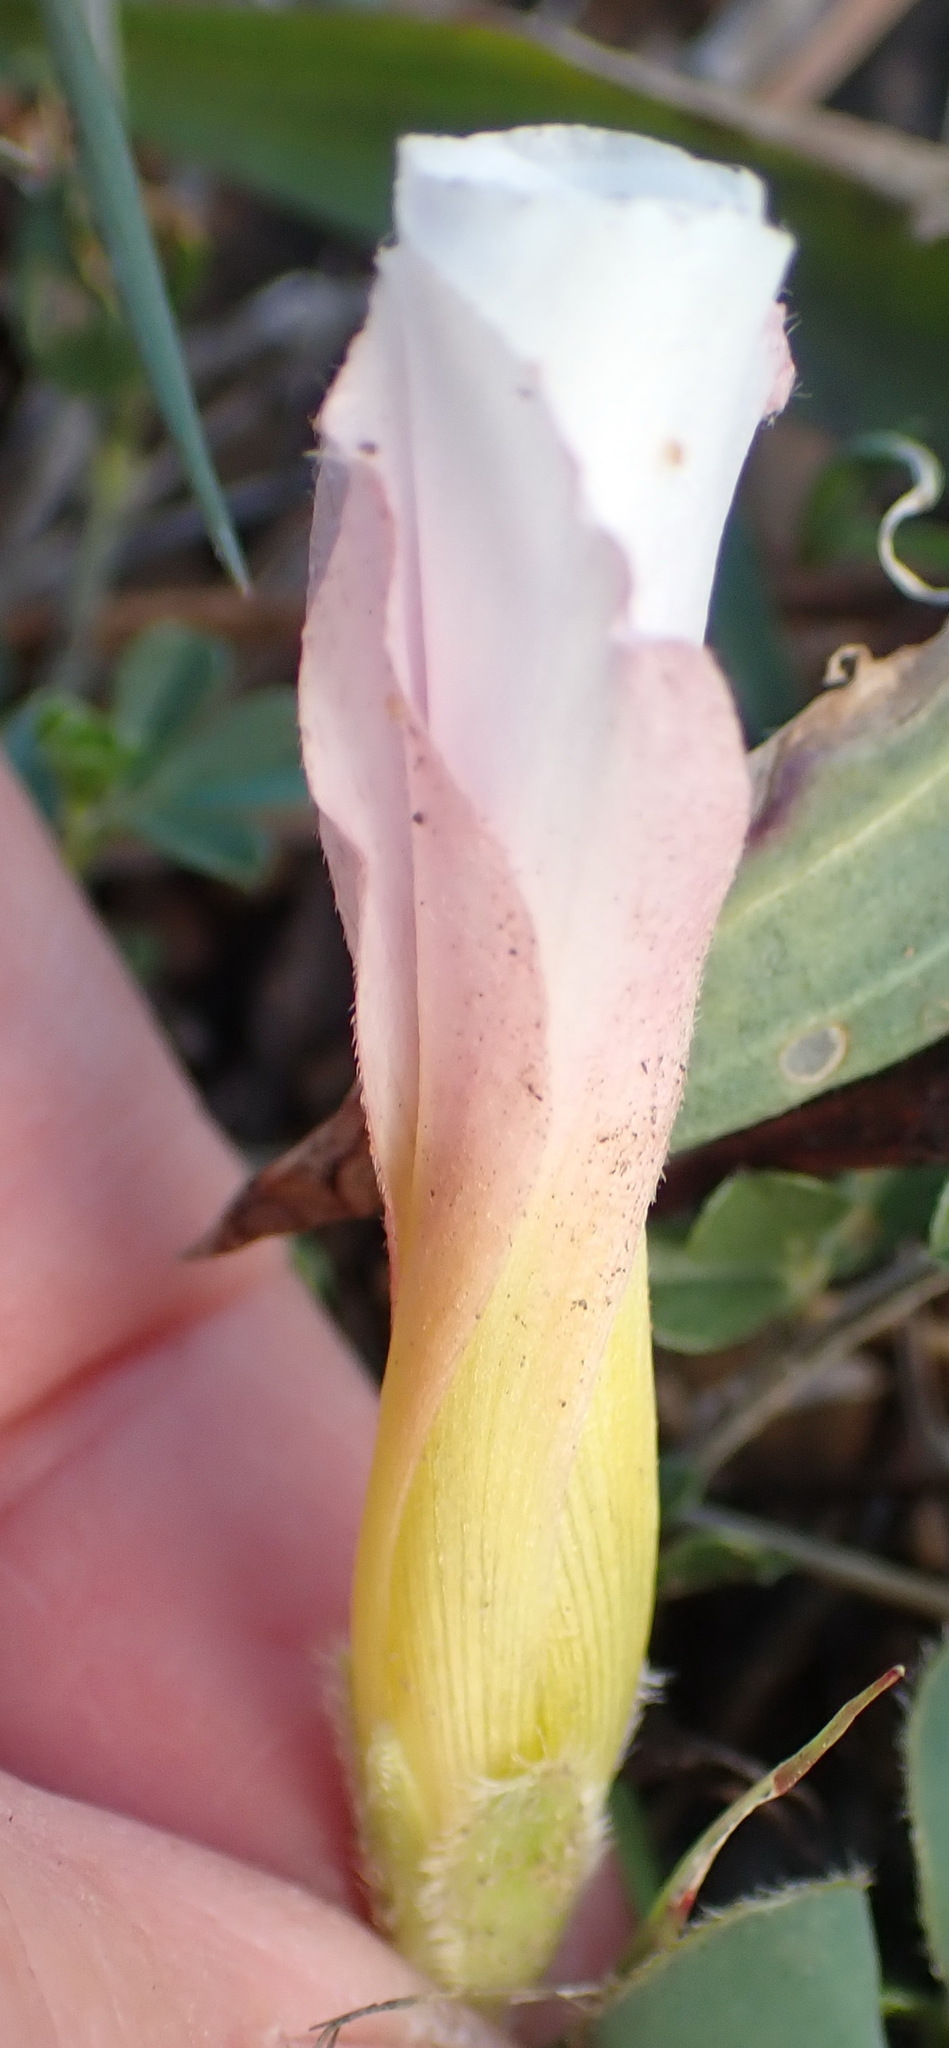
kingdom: Plantae
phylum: Tracheophyta
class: Magnoliopsida
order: Oxalidales
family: Oxalidaceae
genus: Oxalis
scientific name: Oxalis purpurea
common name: Purple woodsorrel
